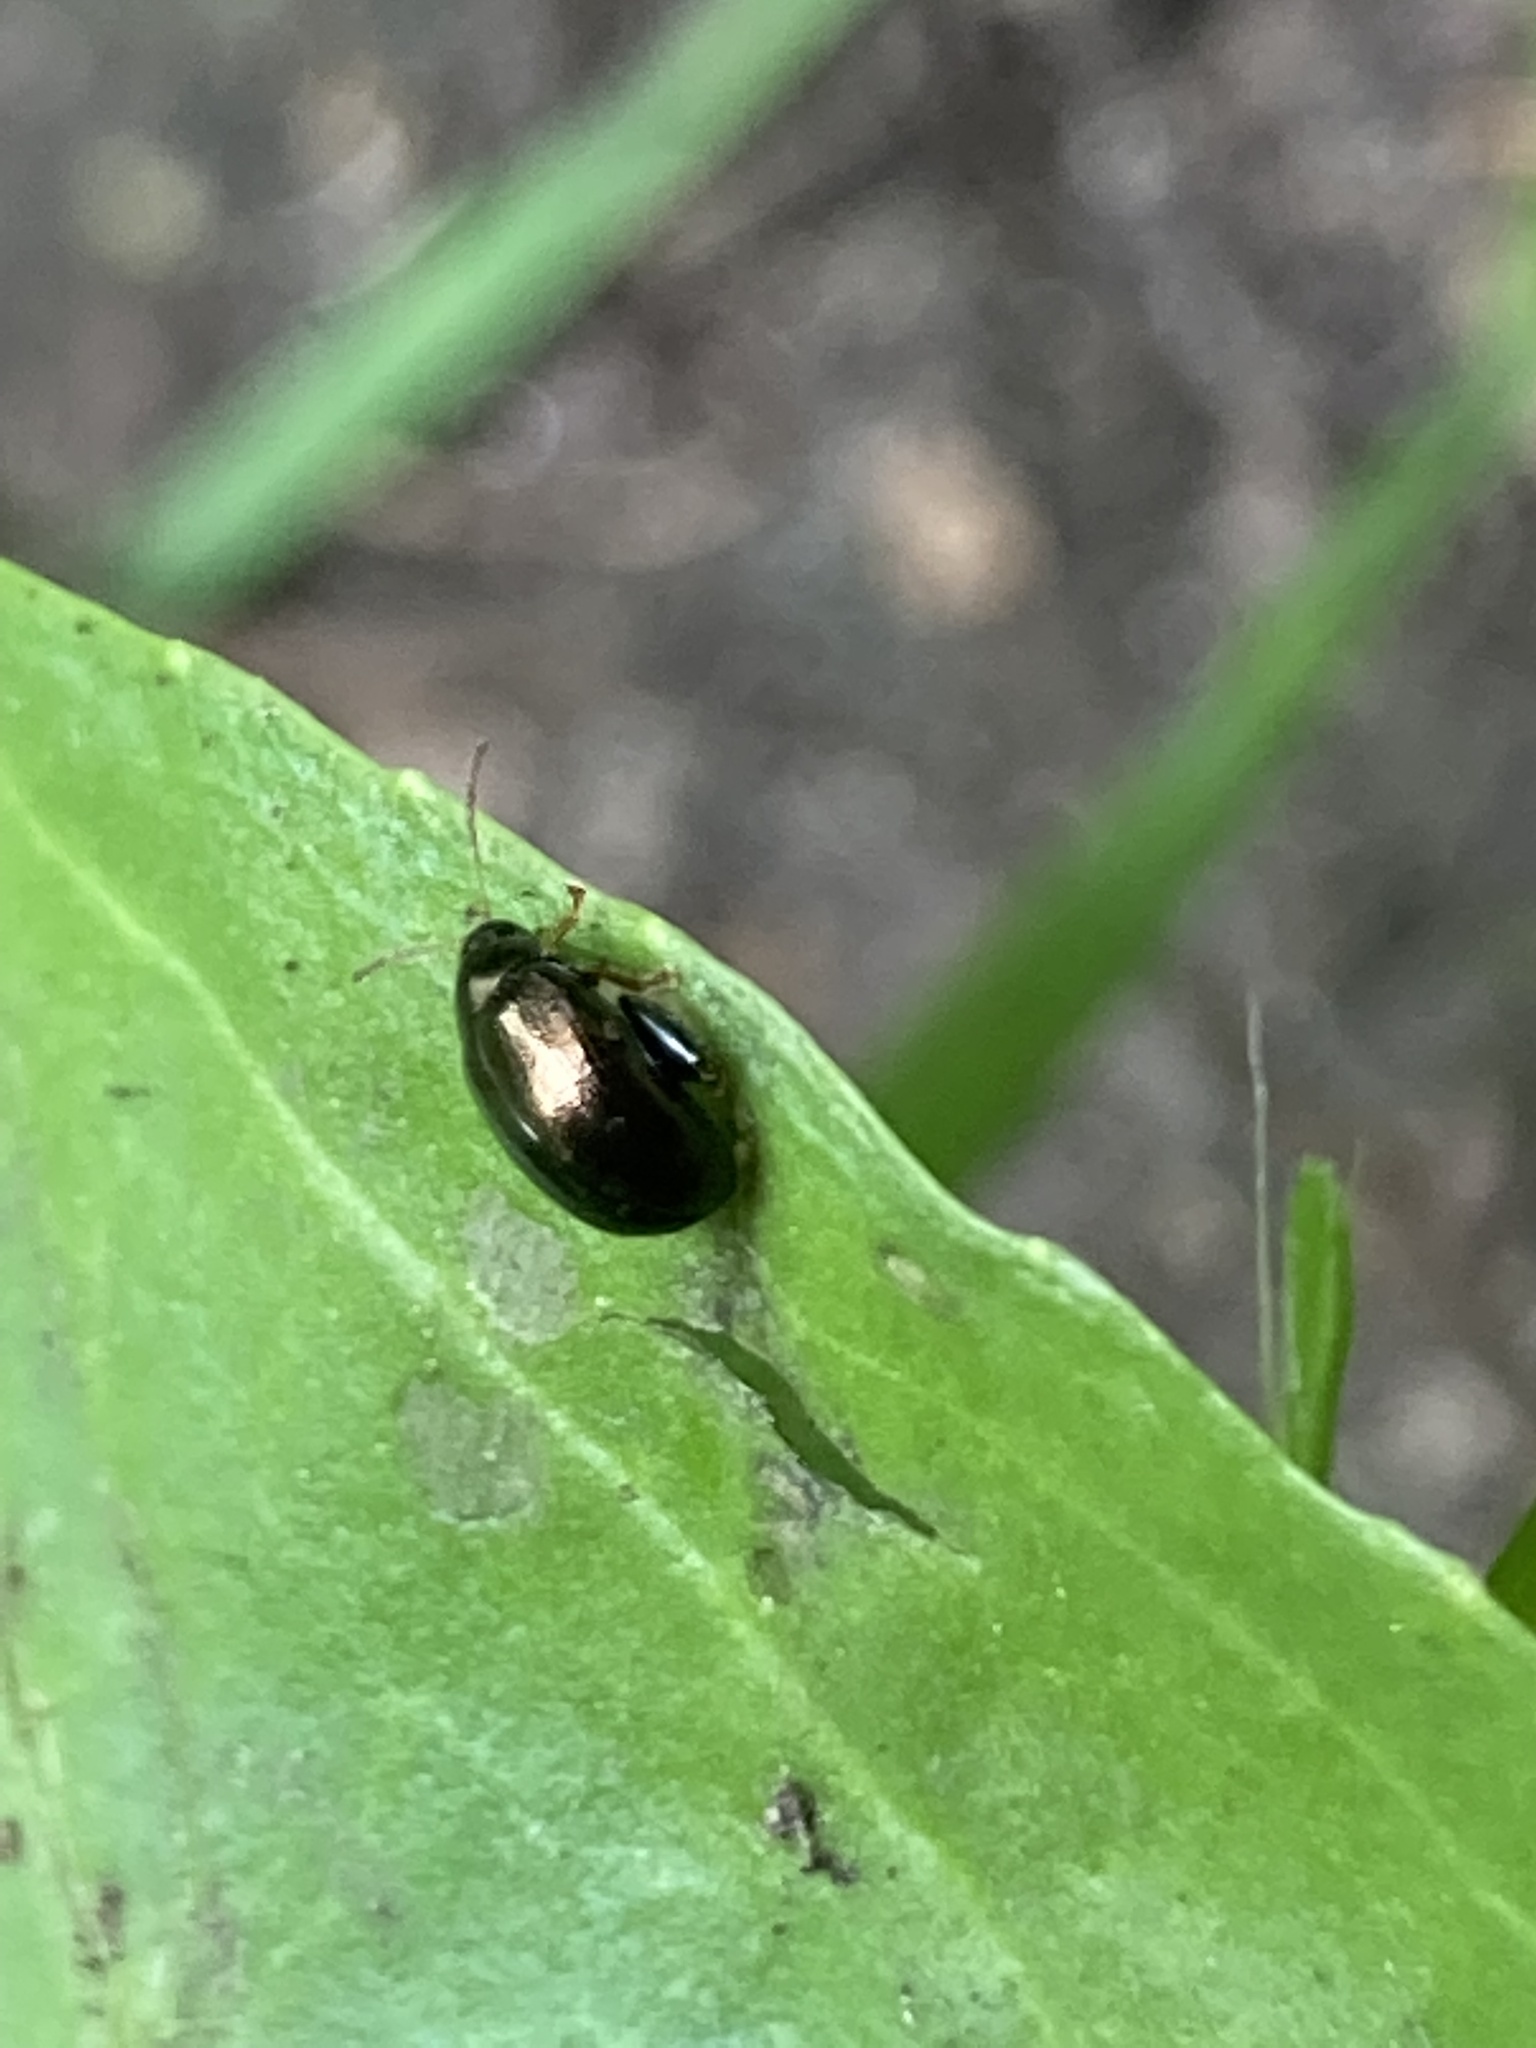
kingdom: Animalia
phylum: Arthropoda
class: Insecta
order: Coleoptera
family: Chrysomelidae
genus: Dibolia
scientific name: Dibolia borealis
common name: Northern plantain flea beetle
